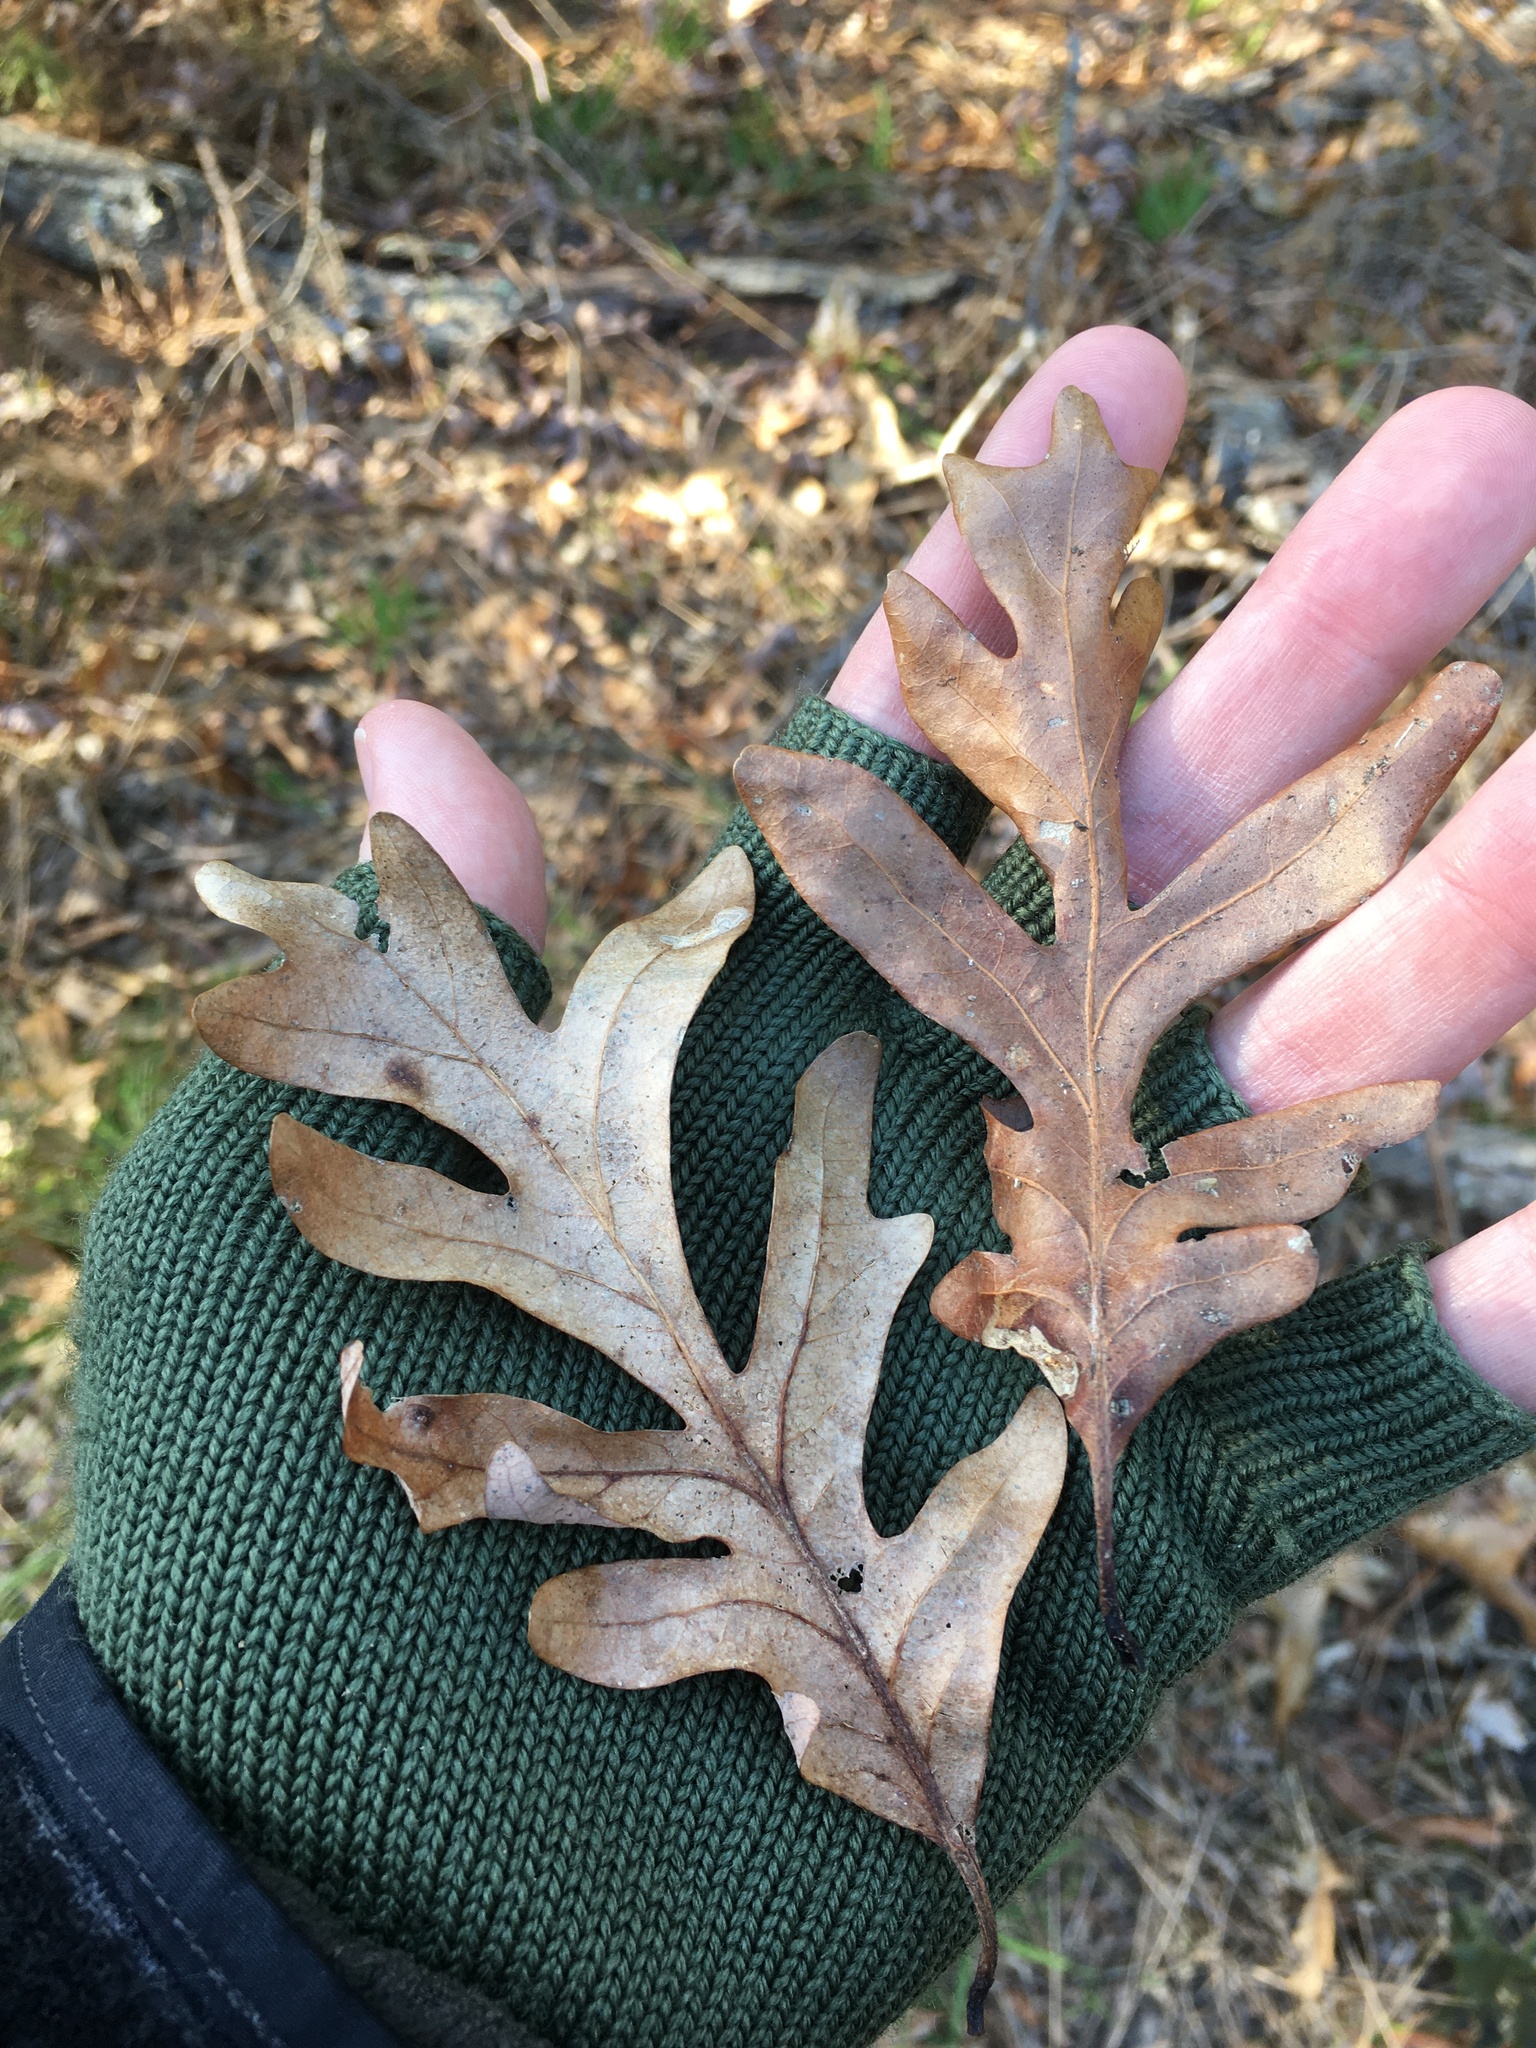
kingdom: Plantae
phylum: Tracheophyta
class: Magnoliopsida
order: Fagales
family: Fagaceae
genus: Quercus
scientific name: Quercus alba
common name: White oak
